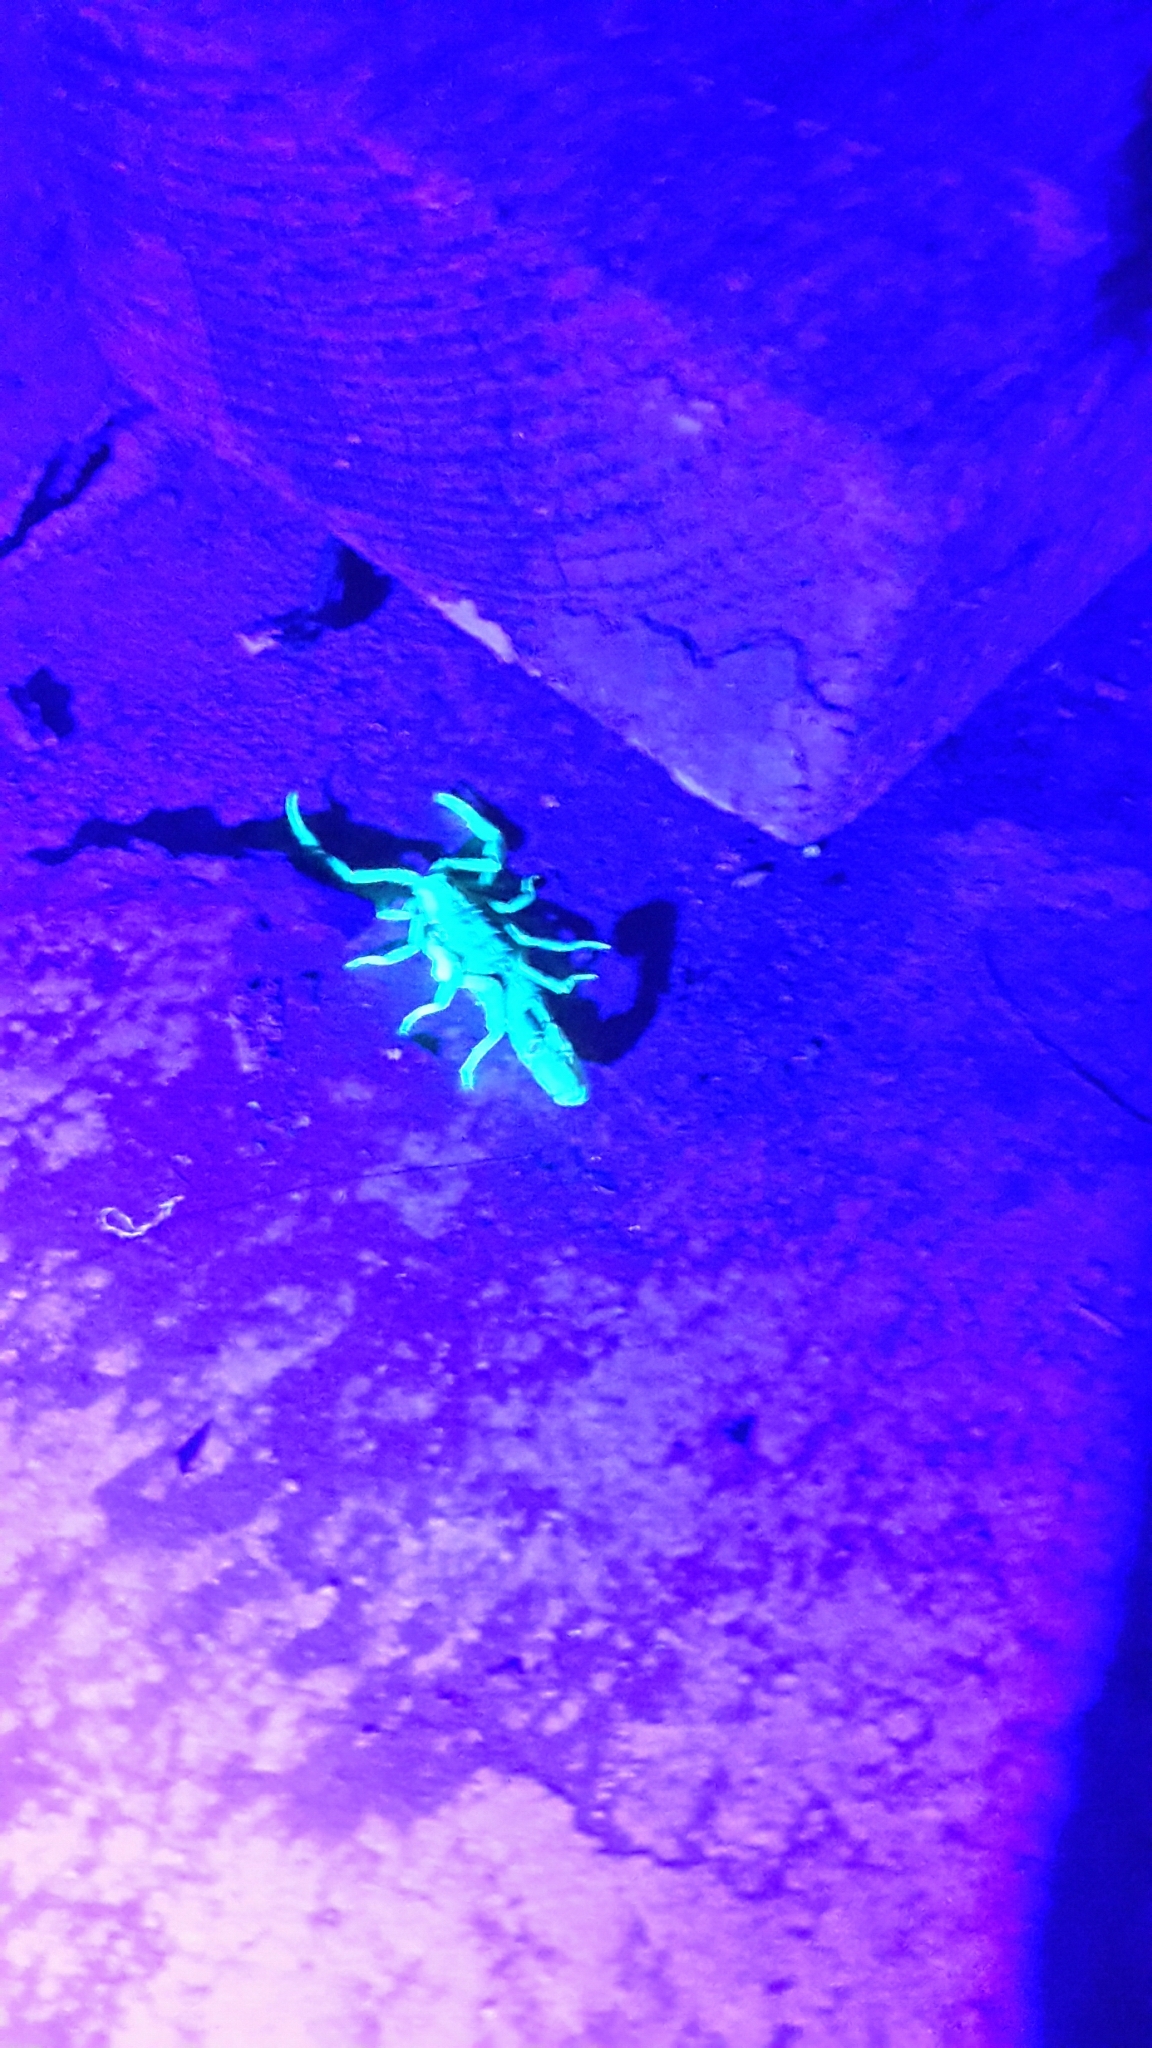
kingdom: Animalia
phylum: Arthropoda
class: Arachnida
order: Scorpiones
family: Buthidae
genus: Uroplectes
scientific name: Uroplectes triangulifer
